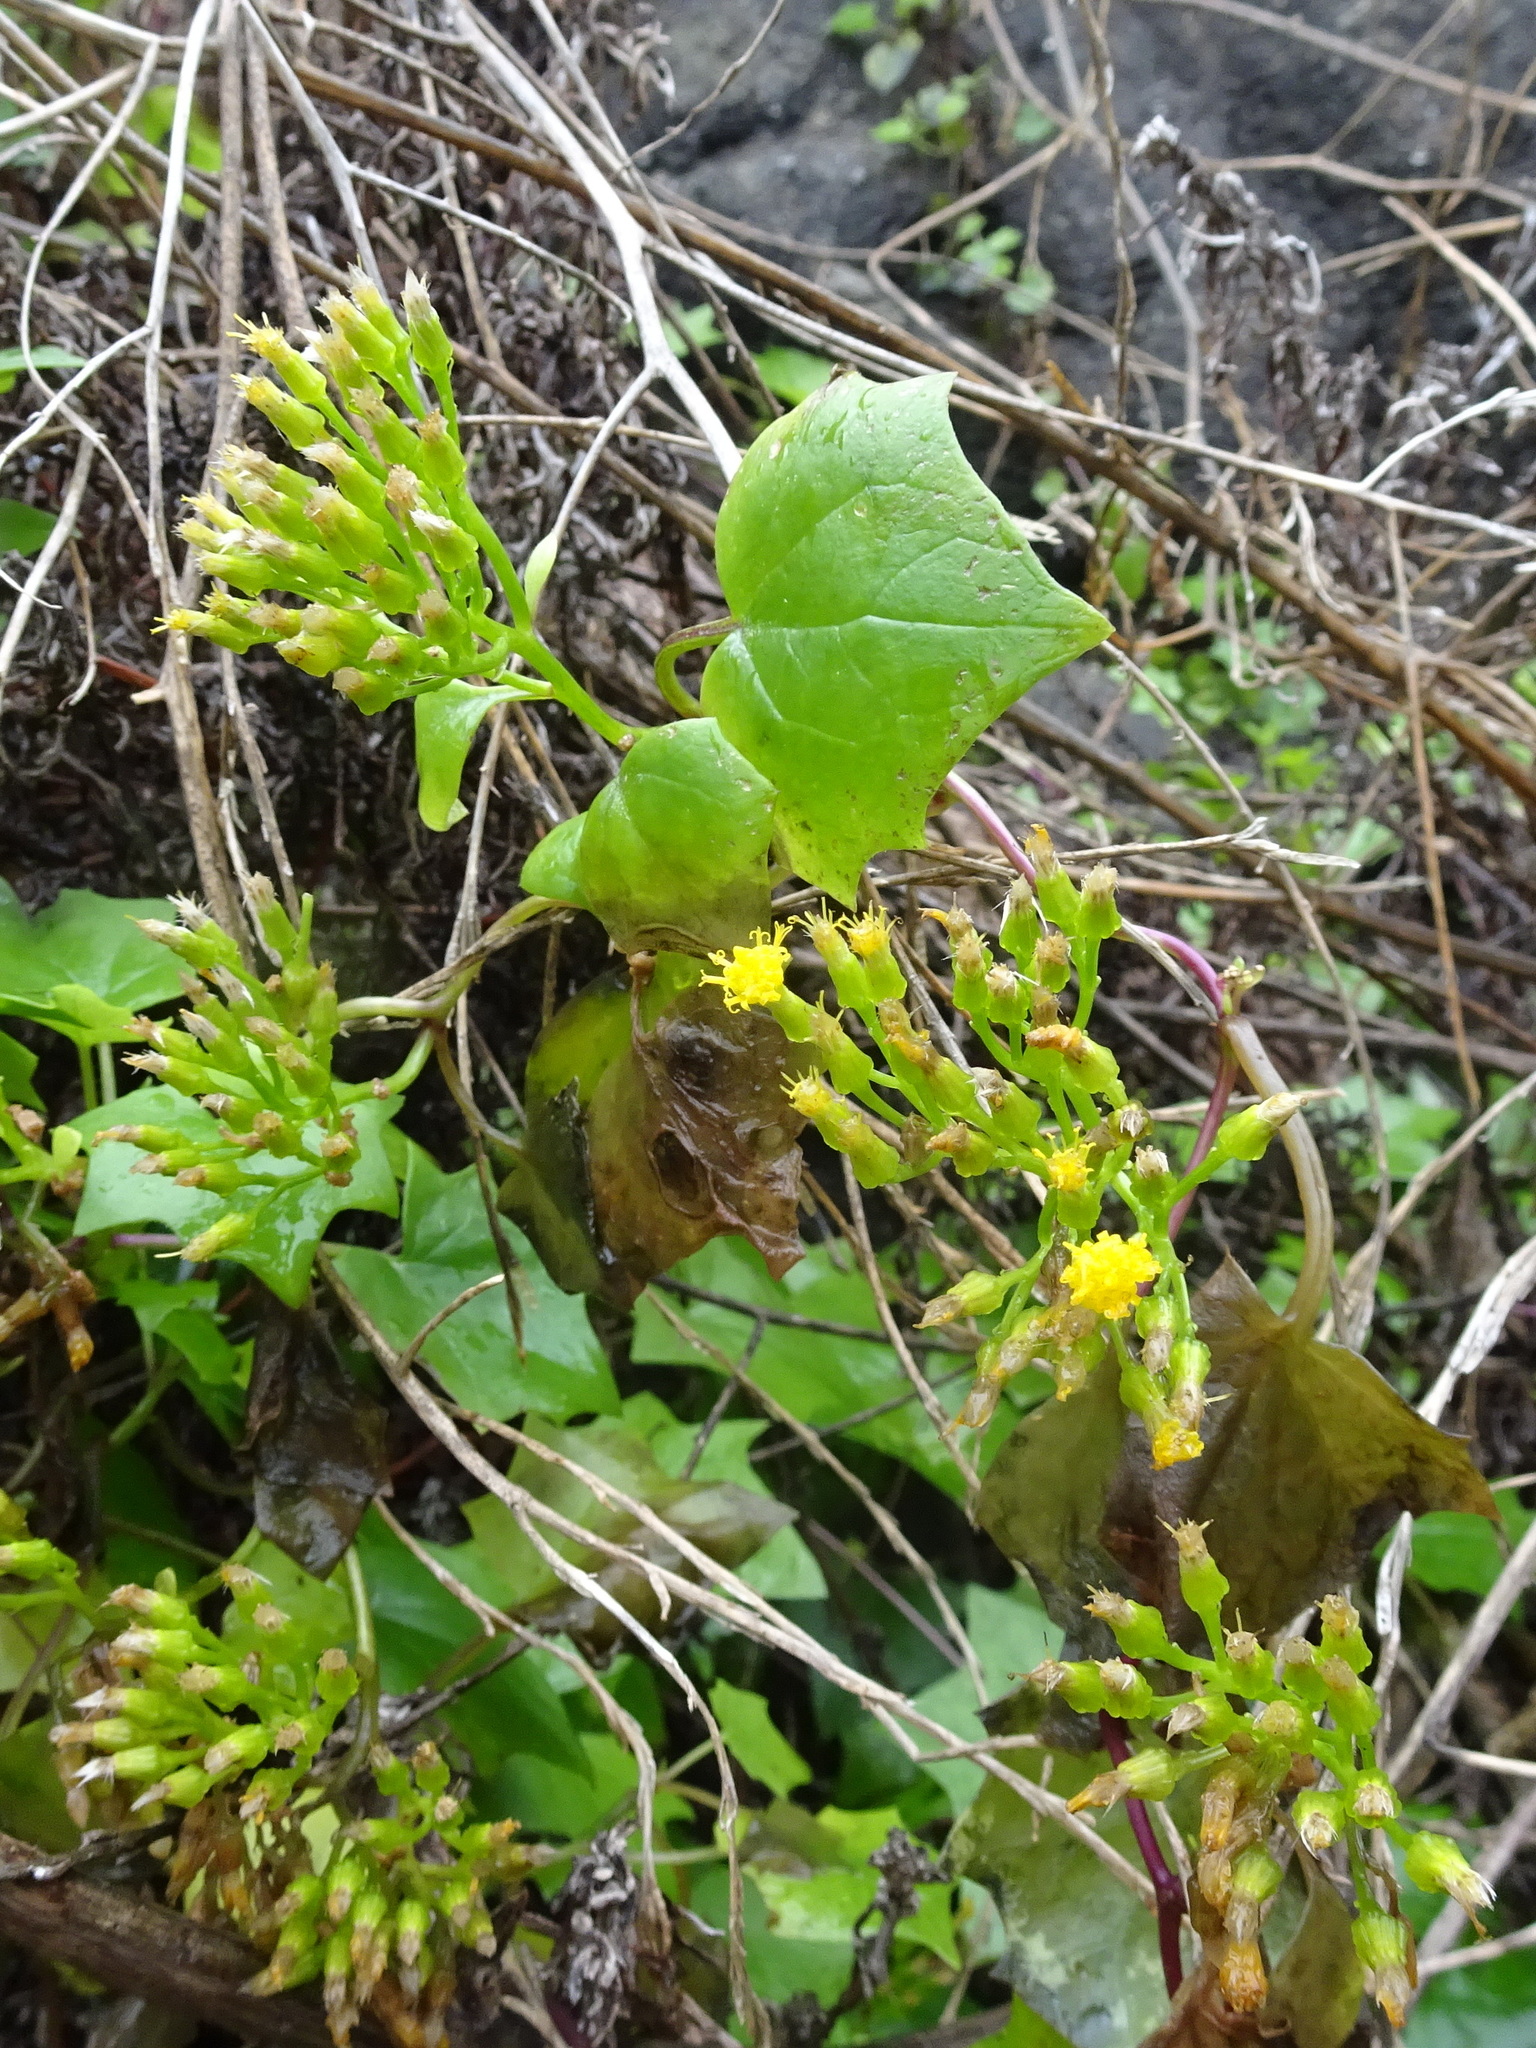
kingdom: Plantae
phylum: Tracheophyta
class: Magnoliopsida
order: Asterales
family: Asteraceae
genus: Delairea
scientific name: Delairea odorata
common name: Cape-ivy
